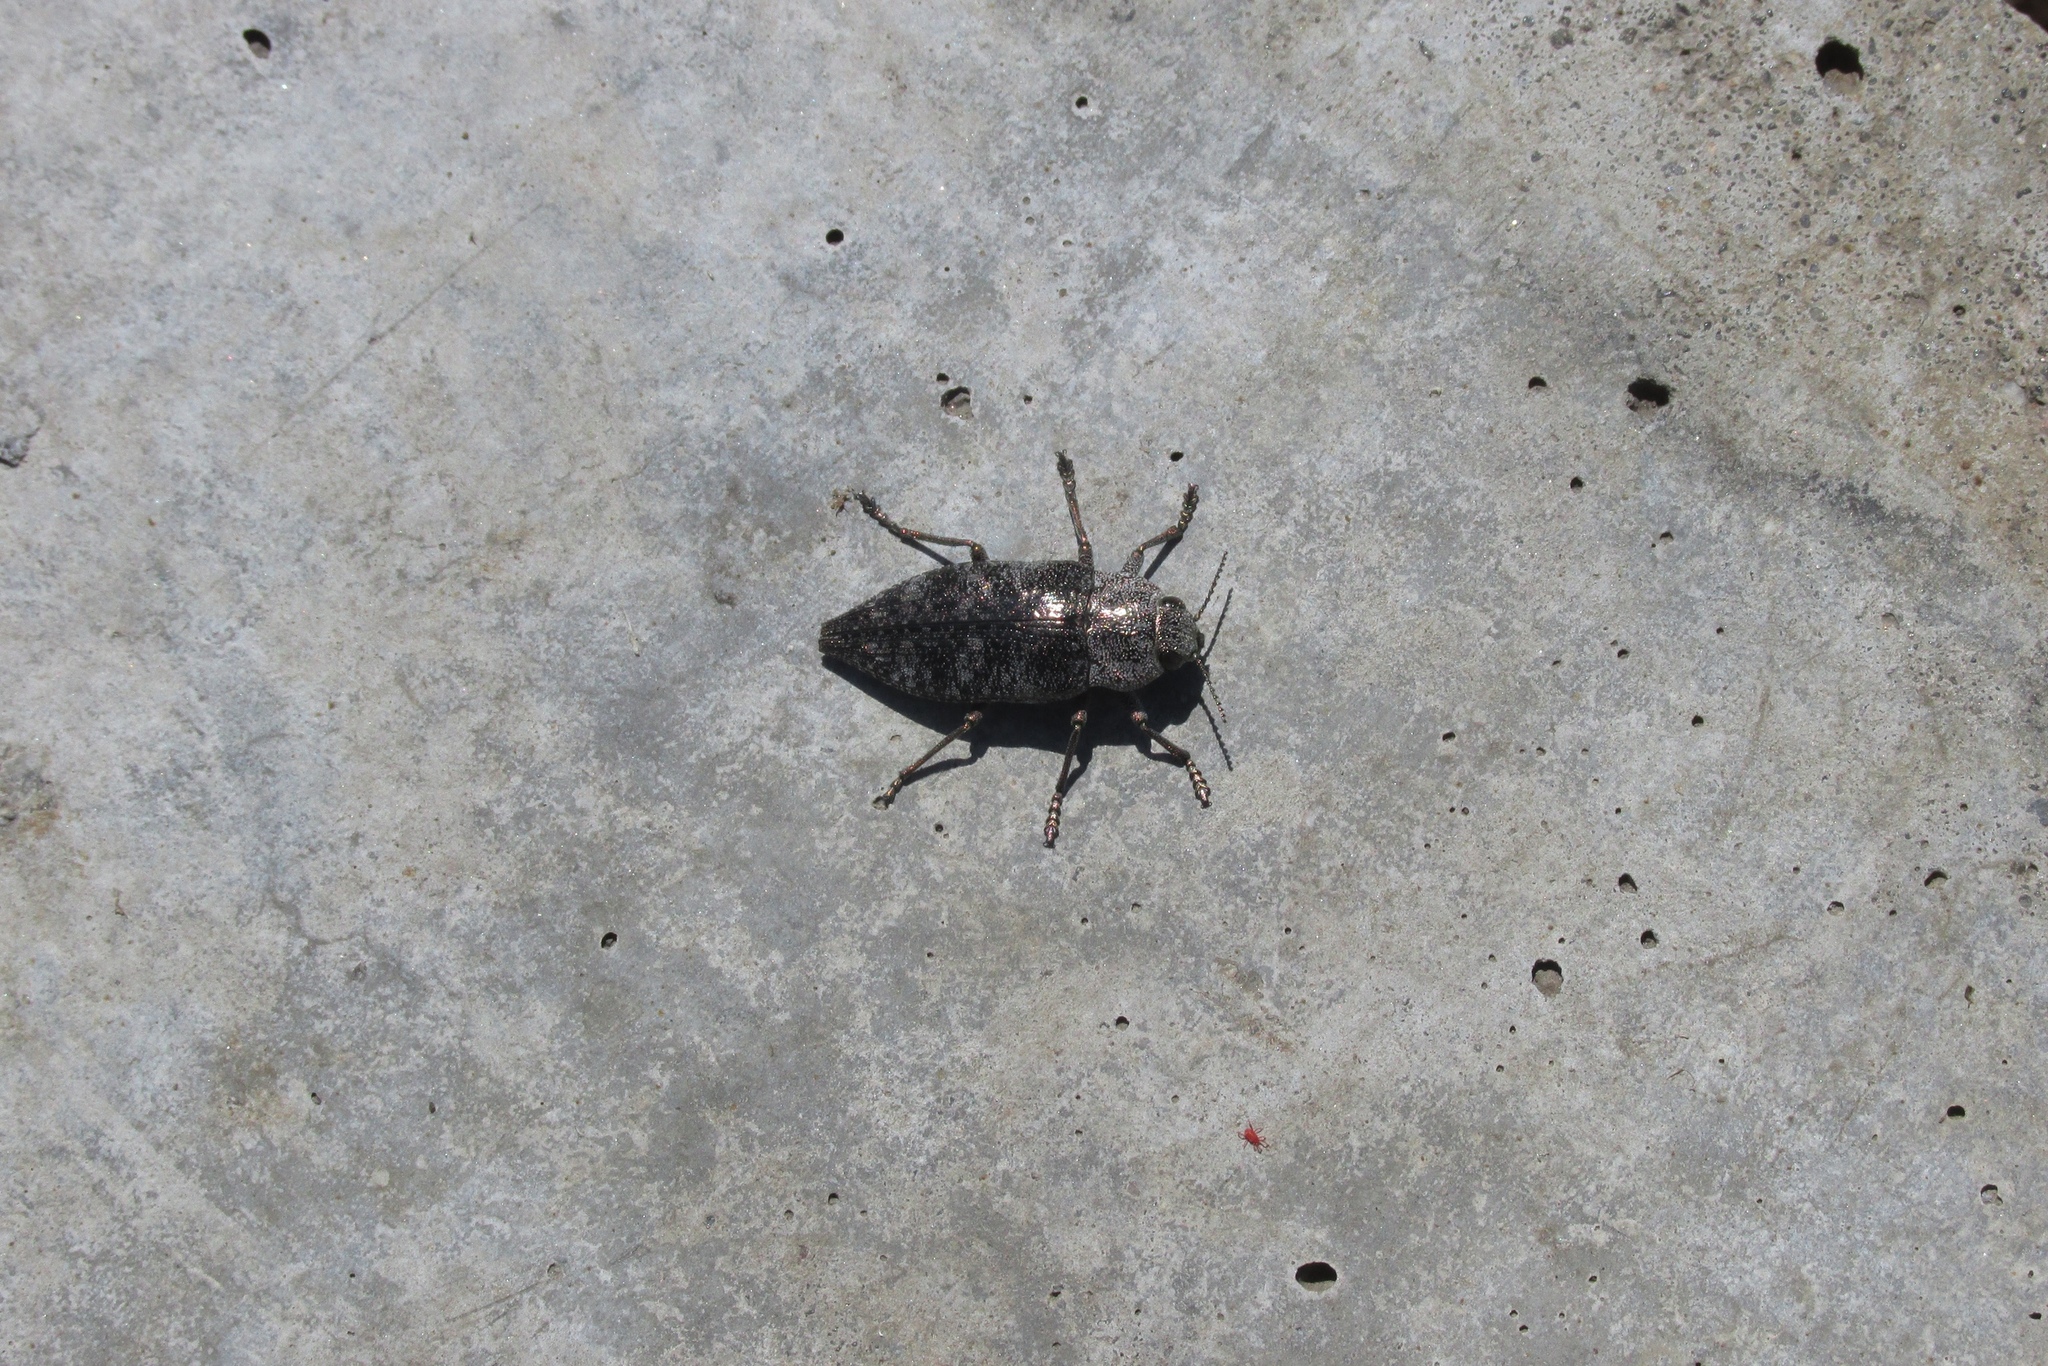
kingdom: Animalia
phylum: Arthropoda
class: Insecta
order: Coleoptera
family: Buprestidae
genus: Dicerca
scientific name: Dicerca aenea
